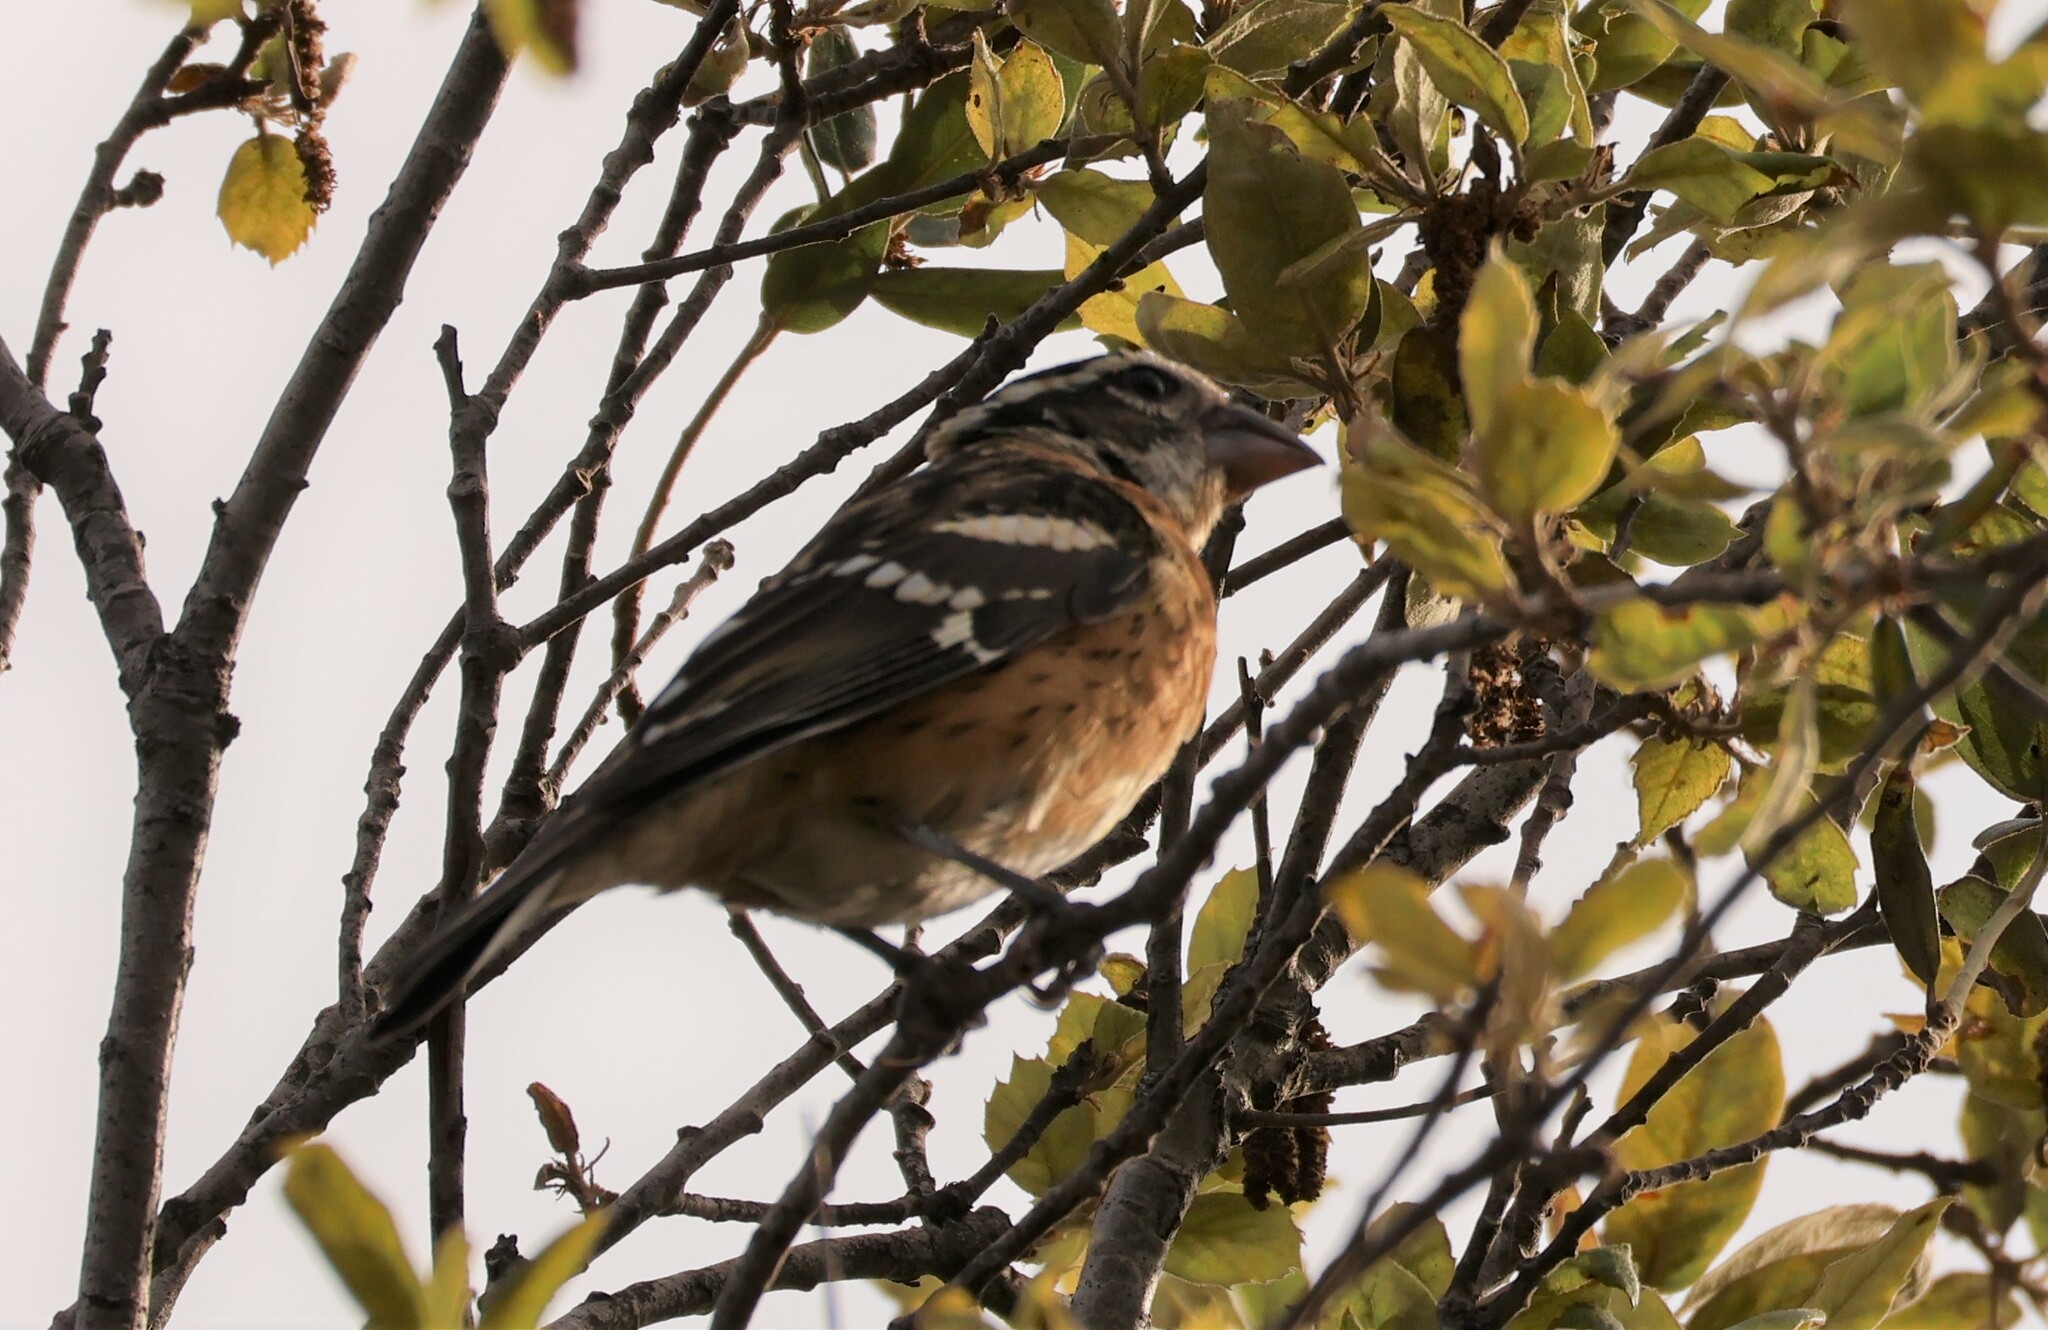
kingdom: Animalia
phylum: Chordata
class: Aves
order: Passeriformes
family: Cardinalidae
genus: Pheucticus
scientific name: Pheucticus melanocephalus
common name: Black-headed grosbeak
